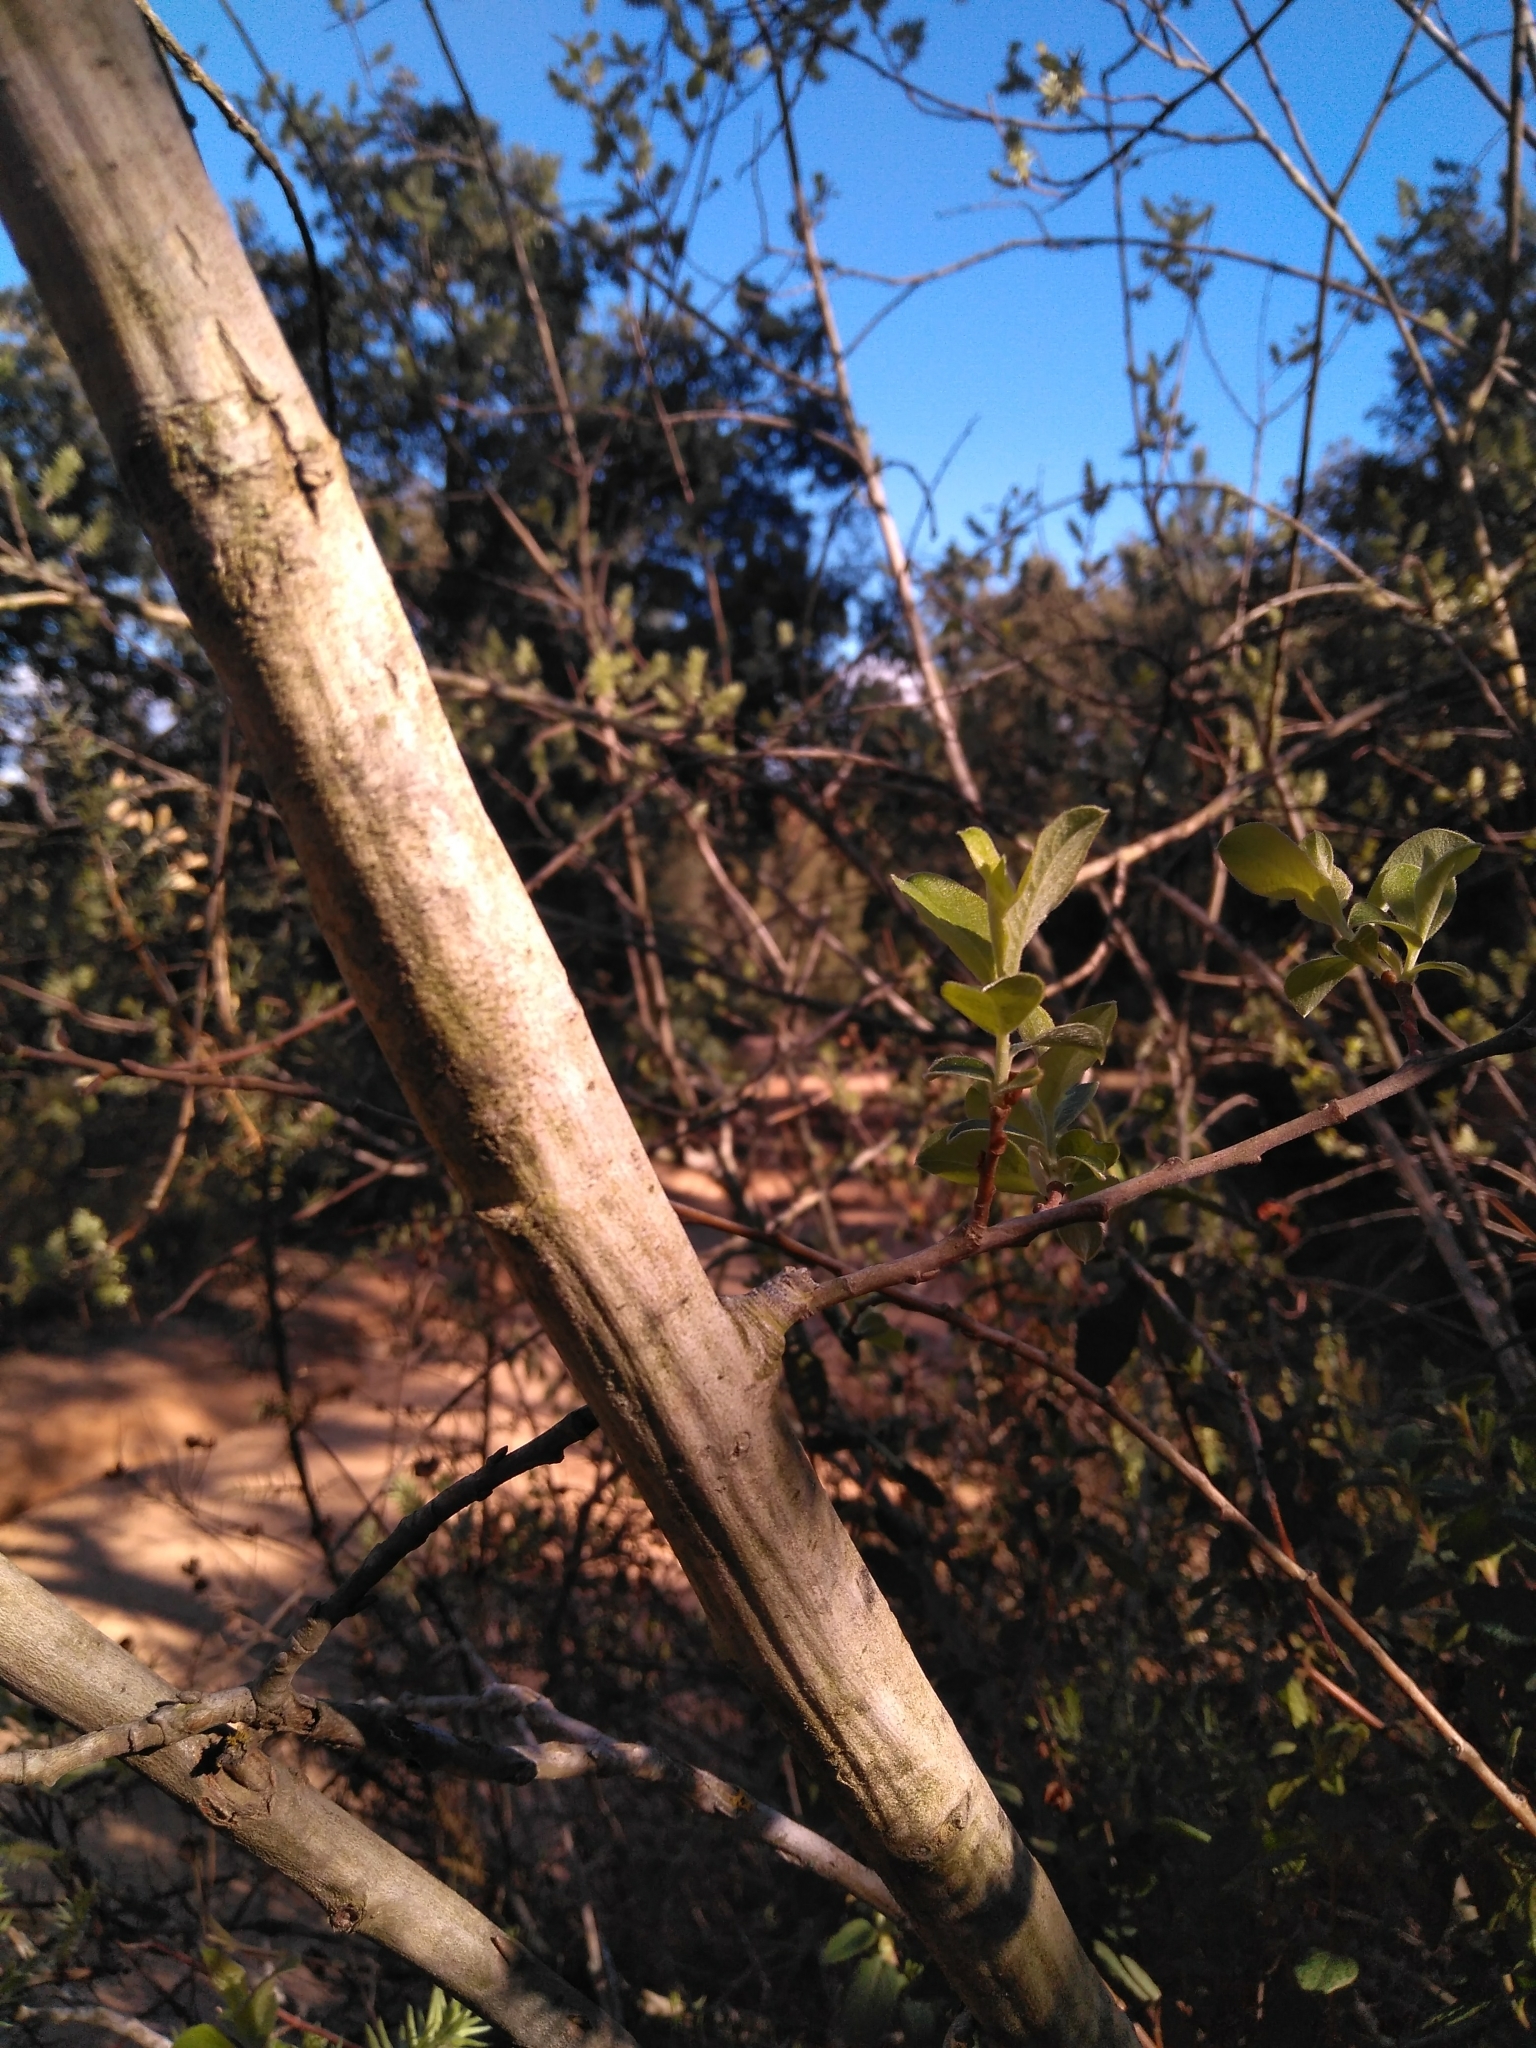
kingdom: Plantae
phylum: Tracheophyta
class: Magnoliopsida
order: Malpighiales
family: Salicaceae
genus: Salix
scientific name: Salix atrocinerea
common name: Rusty willow
